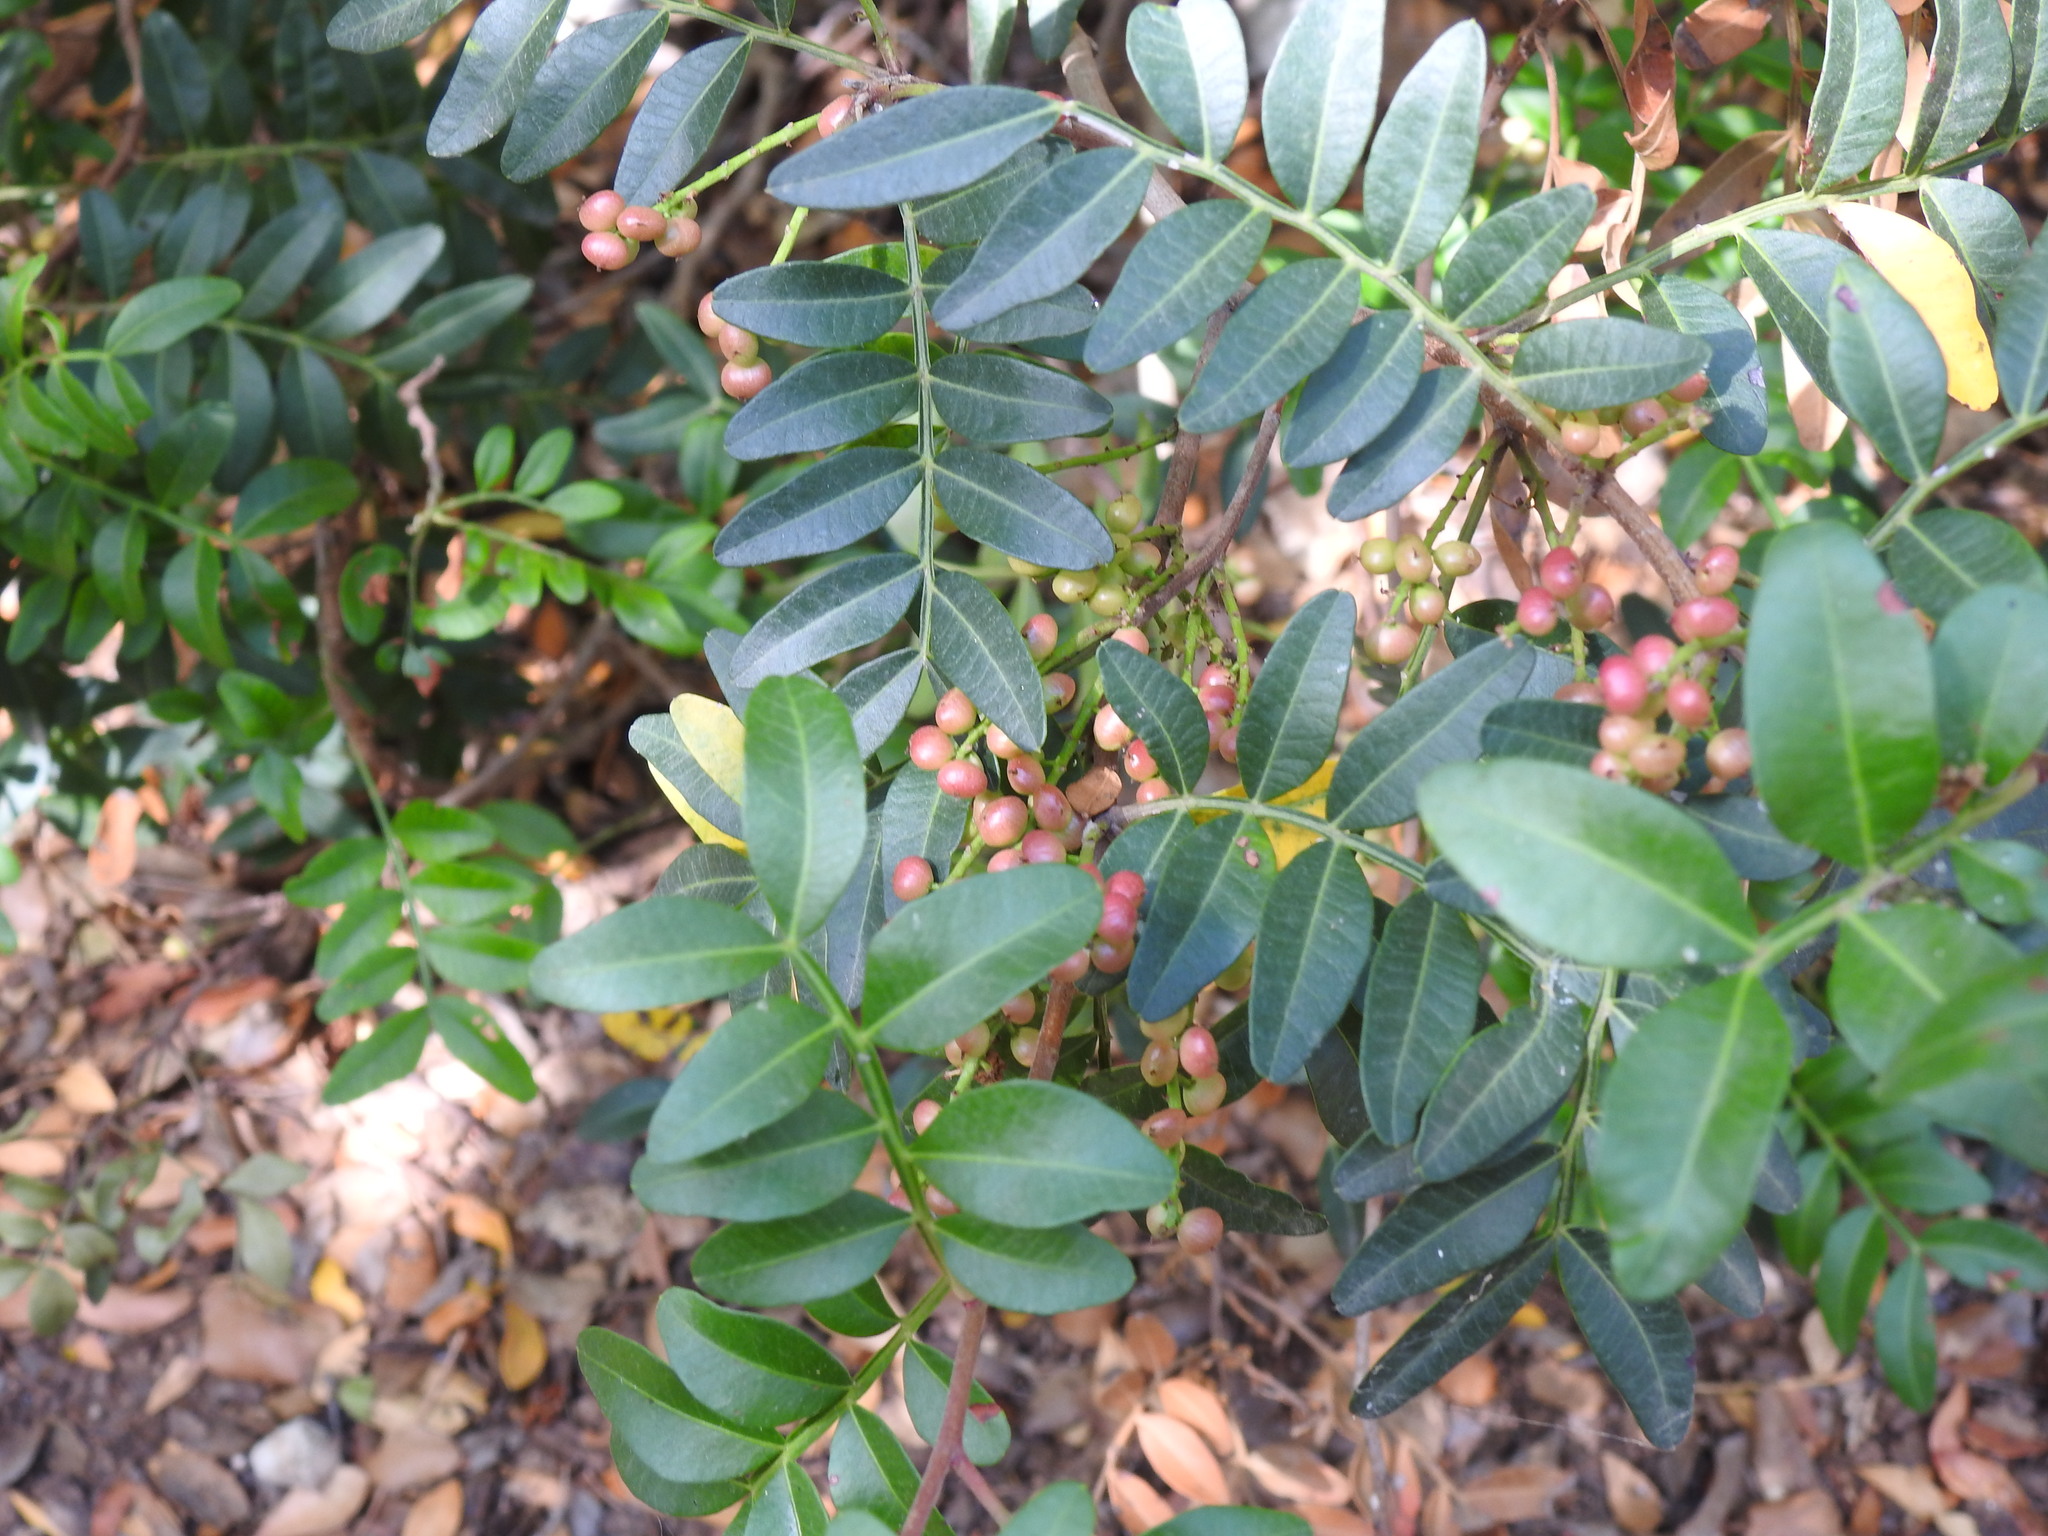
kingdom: Plantae
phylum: Tracheophyta
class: Magnoliopsida
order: Sapindales
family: Anacardiaceae
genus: Pistacia
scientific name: Pistacia lentiscus
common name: Lentisk
